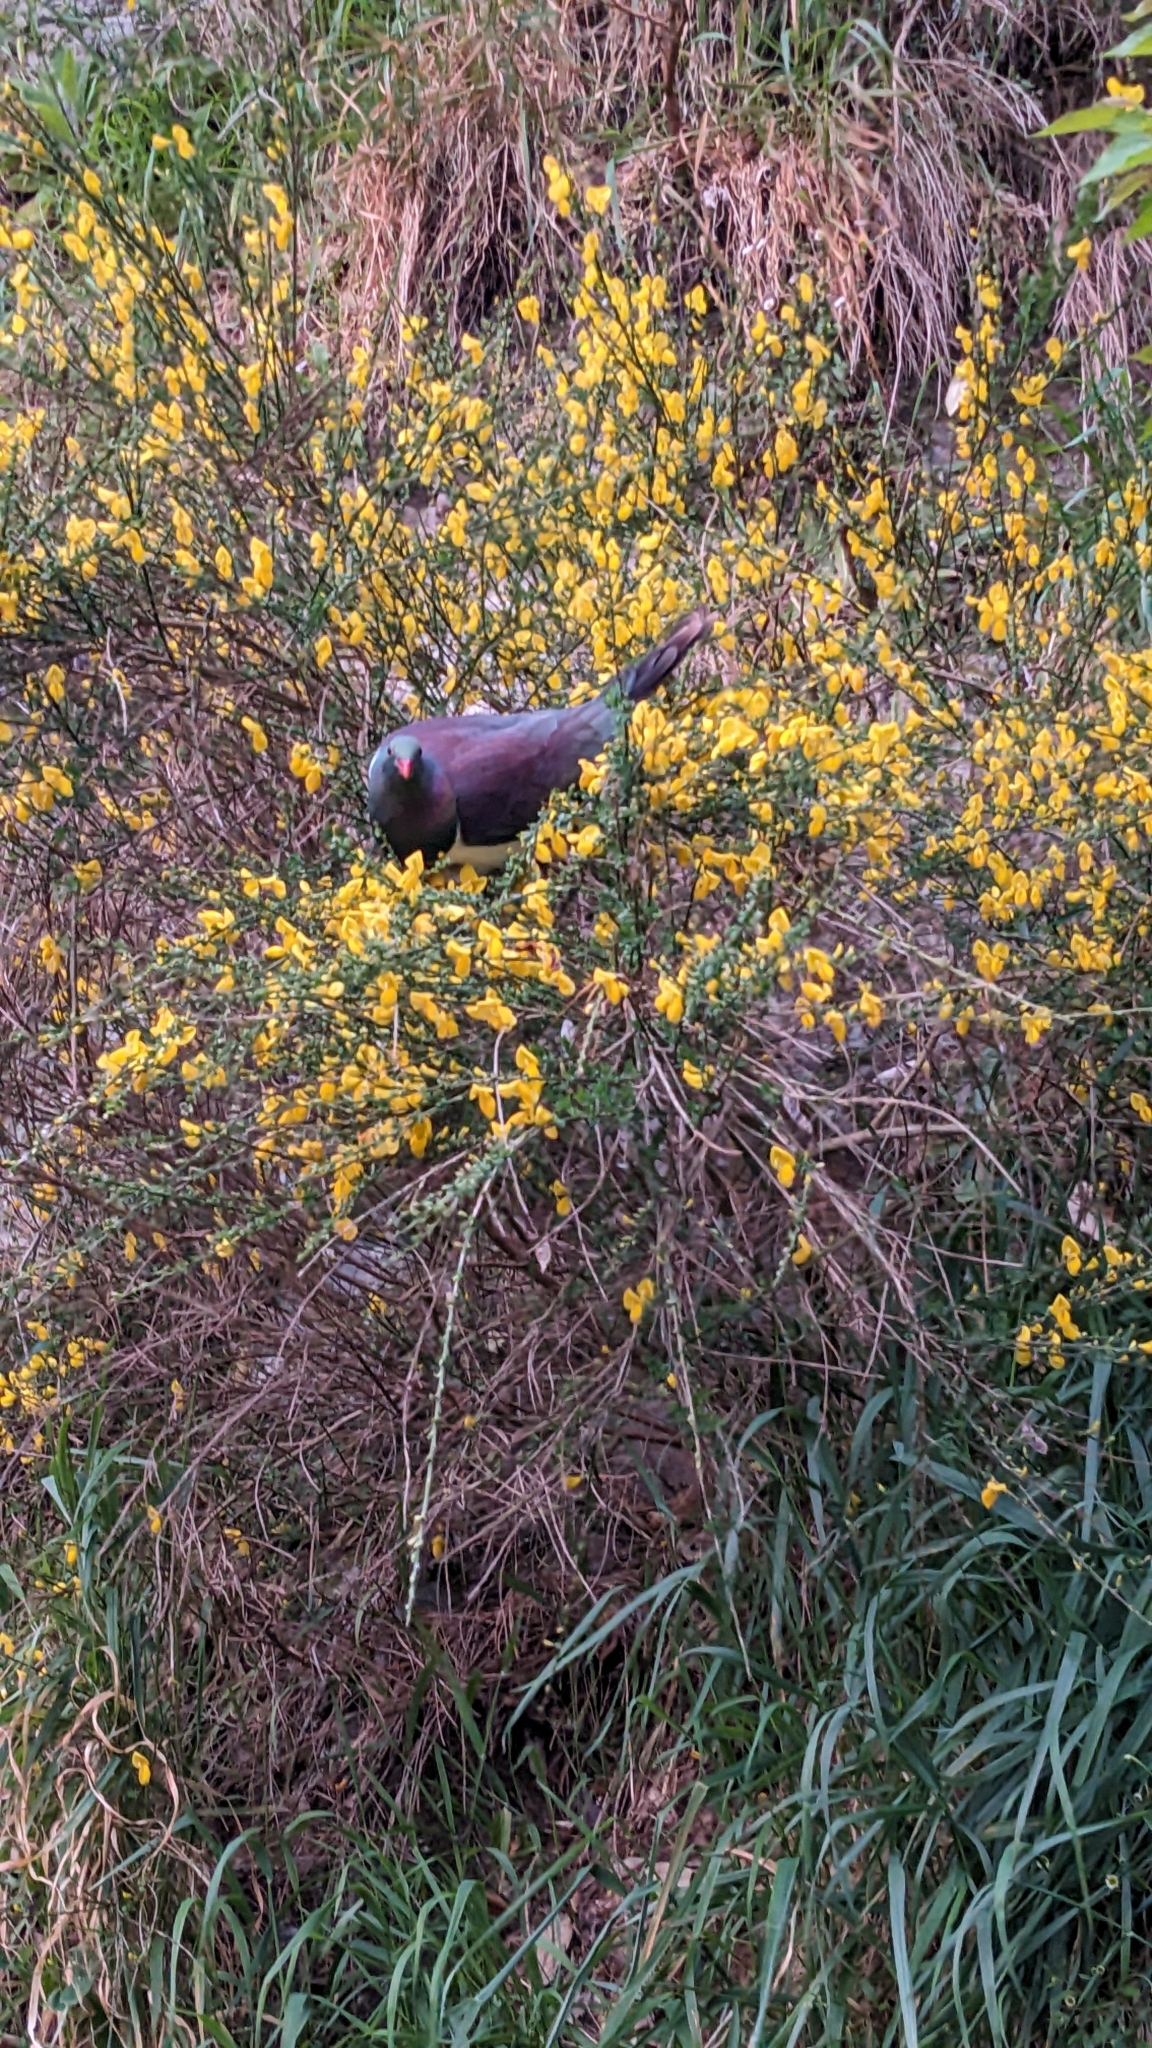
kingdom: Animalia
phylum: Chordata
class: Aves
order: Columbiformes
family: Columbidae
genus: Hemiphaga
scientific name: Hemiphaga novaeseelandiae
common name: New zealand pigeon
